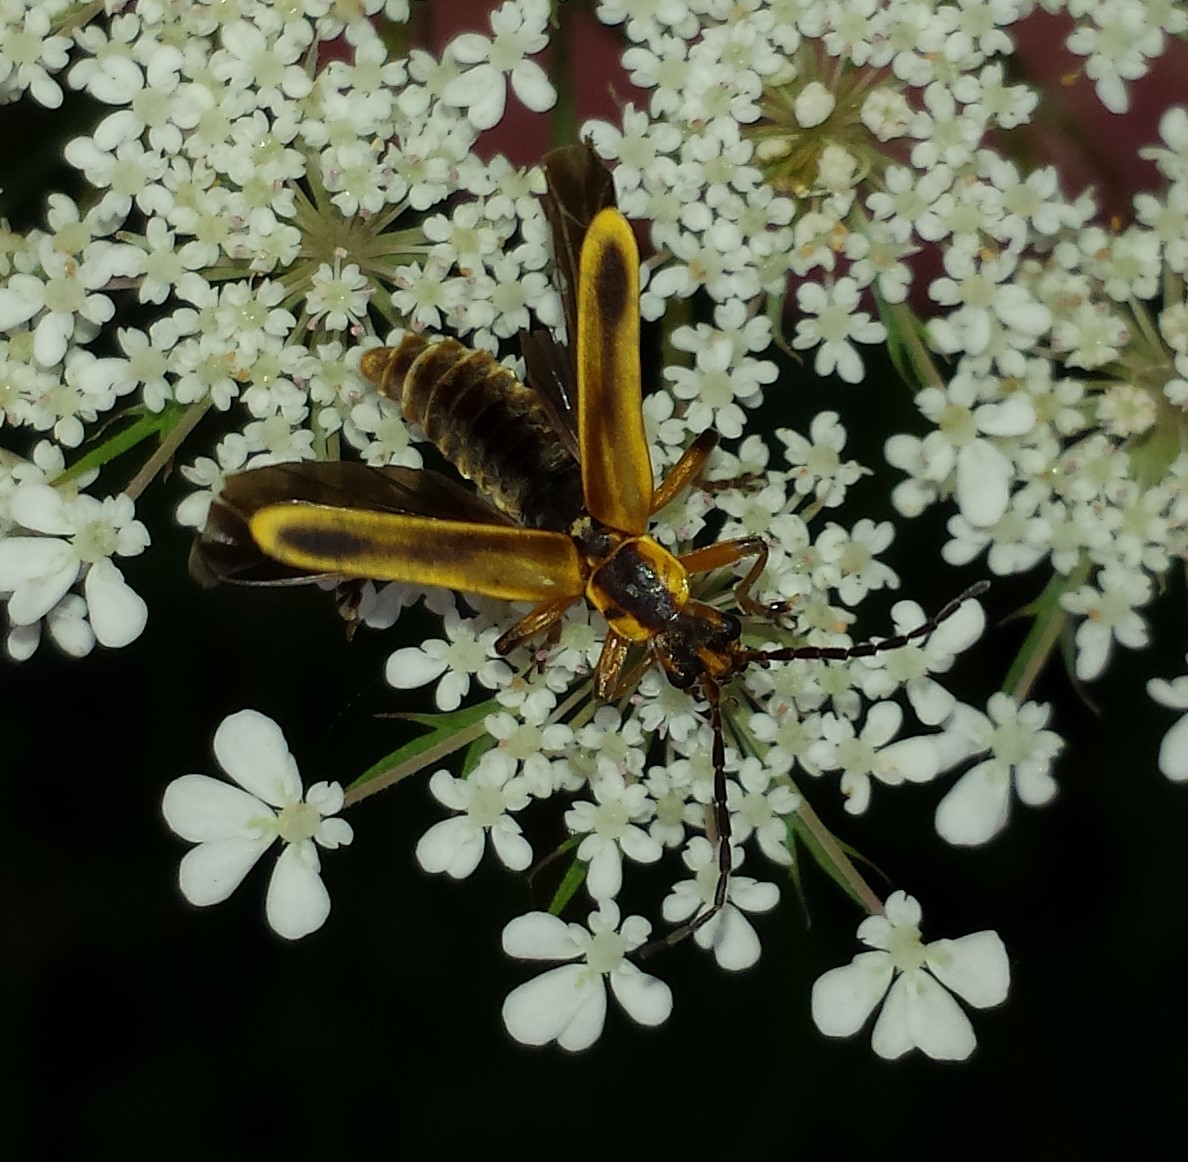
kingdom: Animalia
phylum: Arthropoda
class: Insecta
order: Coleoptera
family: Cantharidae
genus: Chauliognathus
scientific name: Chauliognathus marginatus
